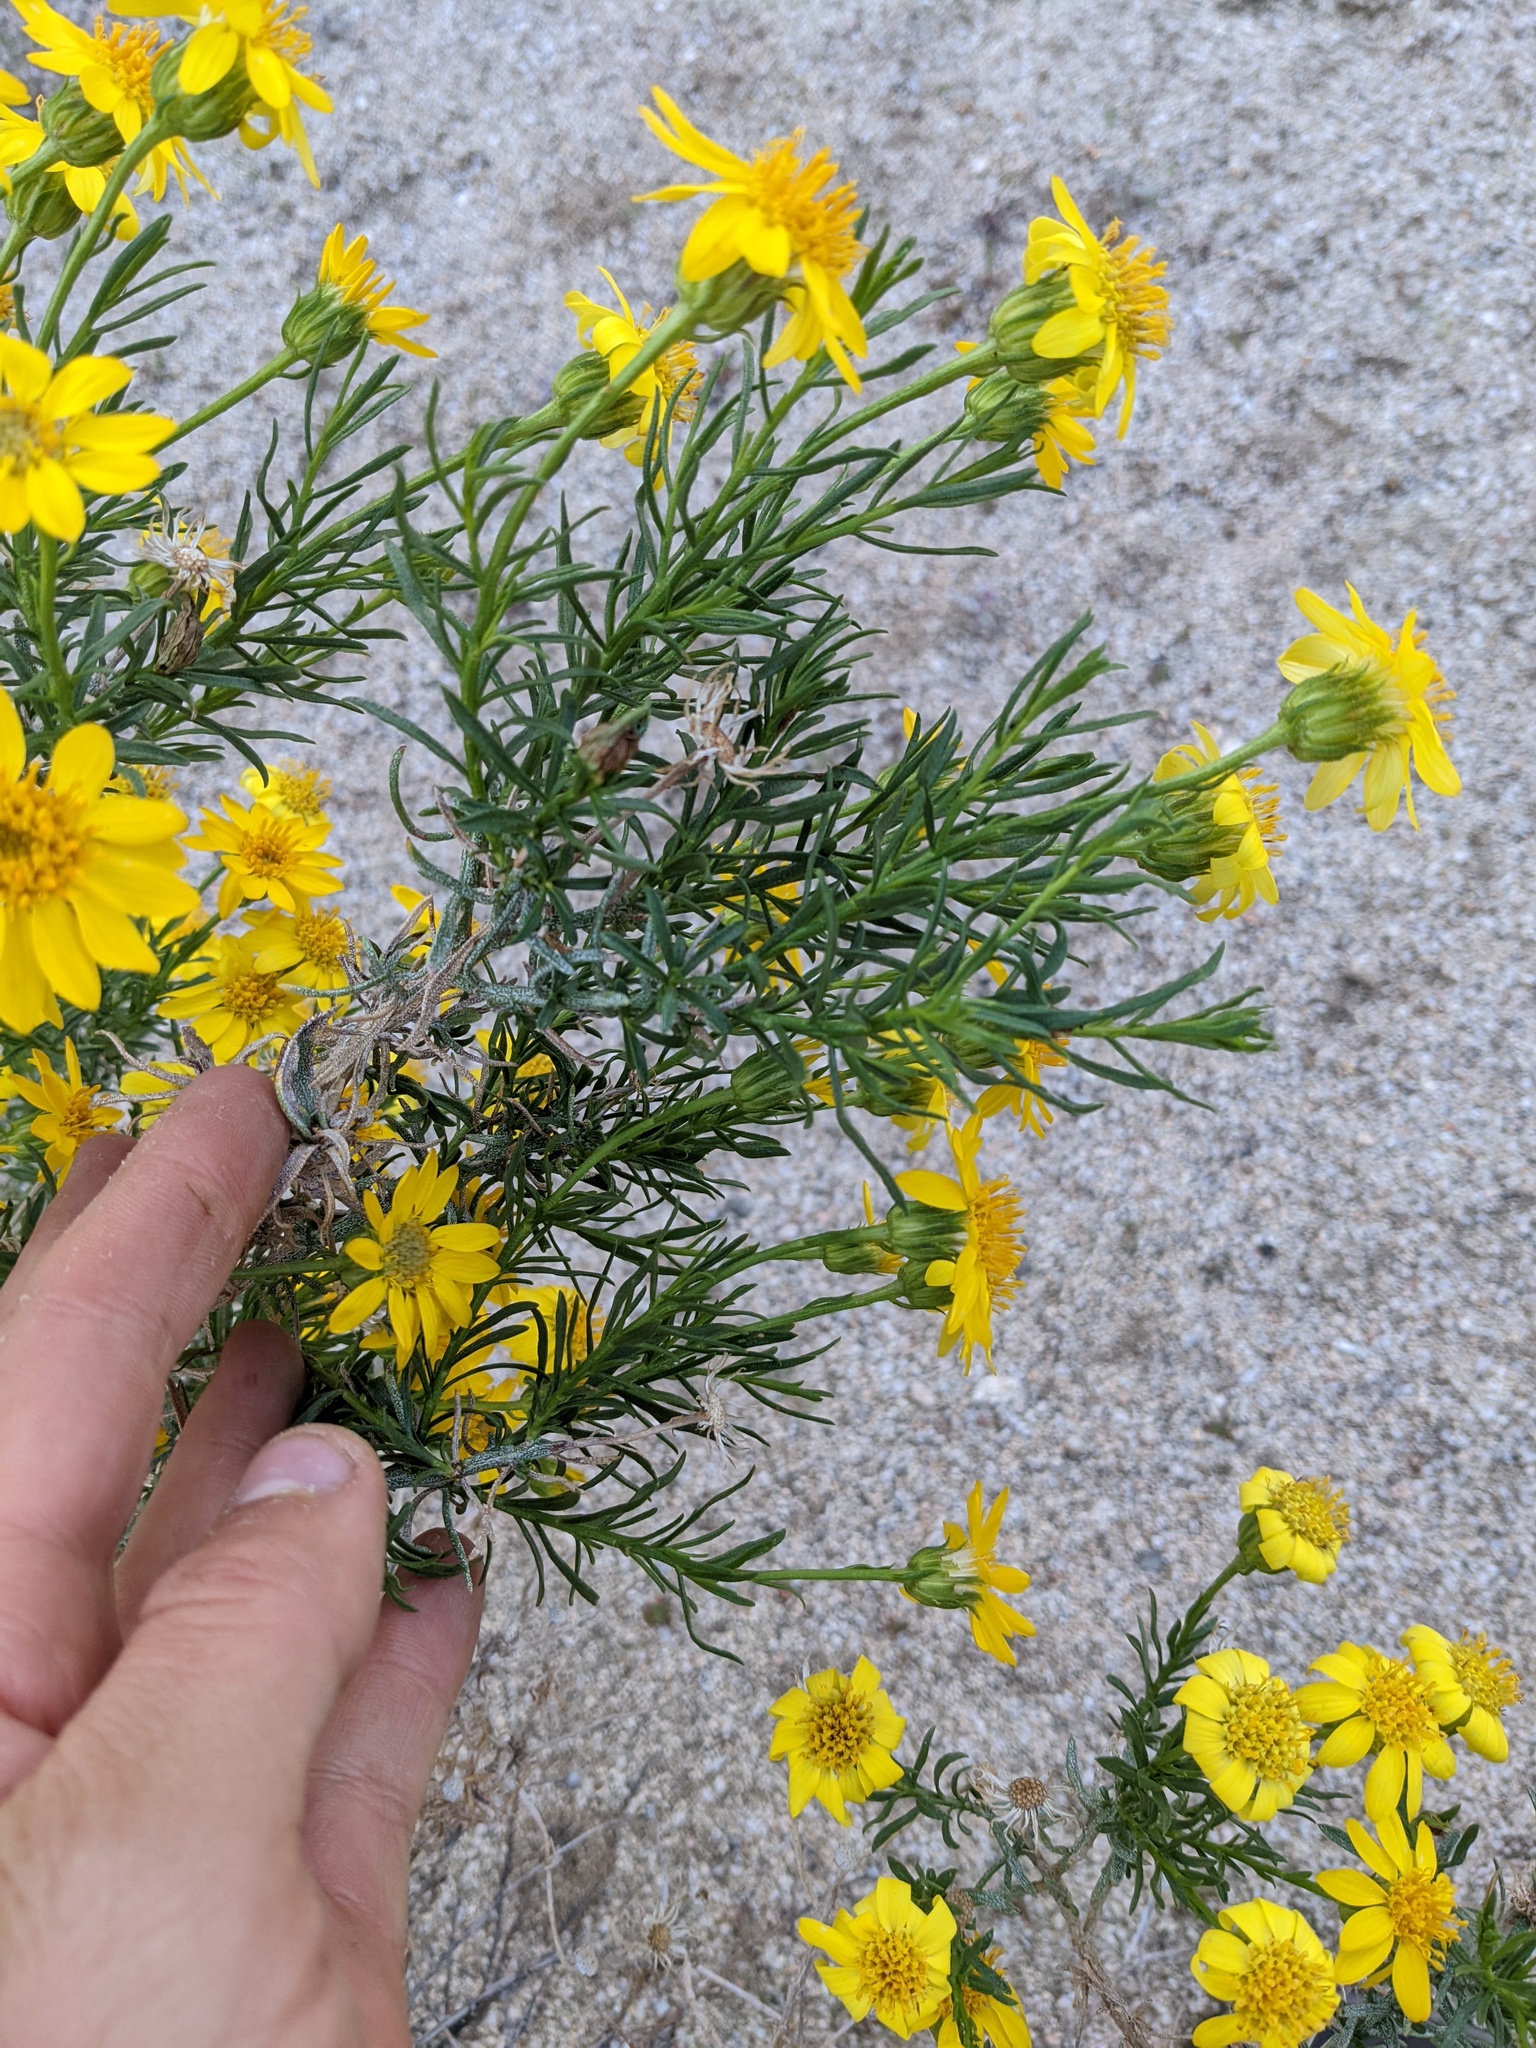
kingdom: Plantae
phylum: Tracheophyta
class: Magnoliopsida
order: Asterales
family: Asteraceae
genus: Ericameria
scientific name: Ericameria linearifolia
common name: Interior goldenbush
